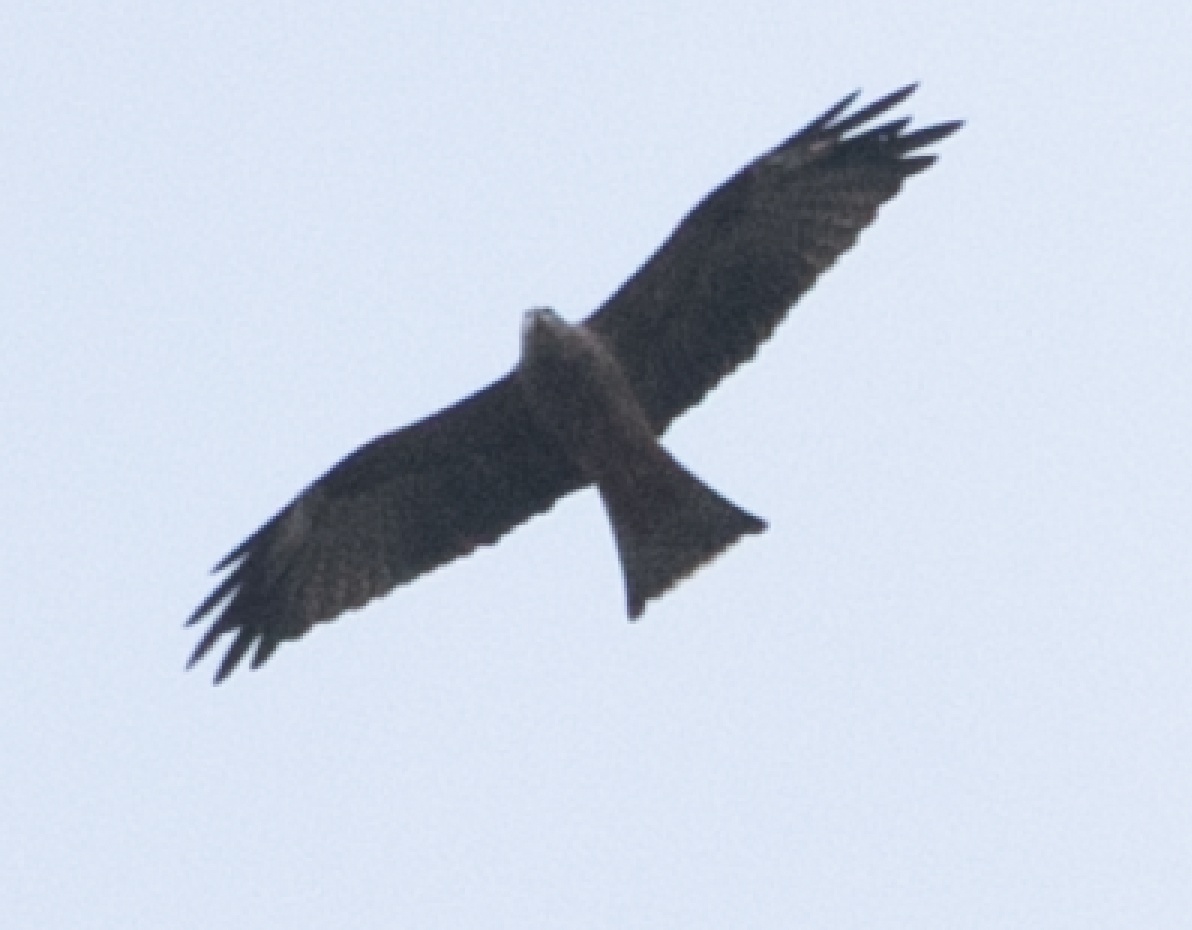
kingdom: Animalia
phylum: Chordata
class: Aves
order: Accipitriformes
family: Accipitridae
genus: Milvus
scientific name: Milvus migrans
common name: Black kite
